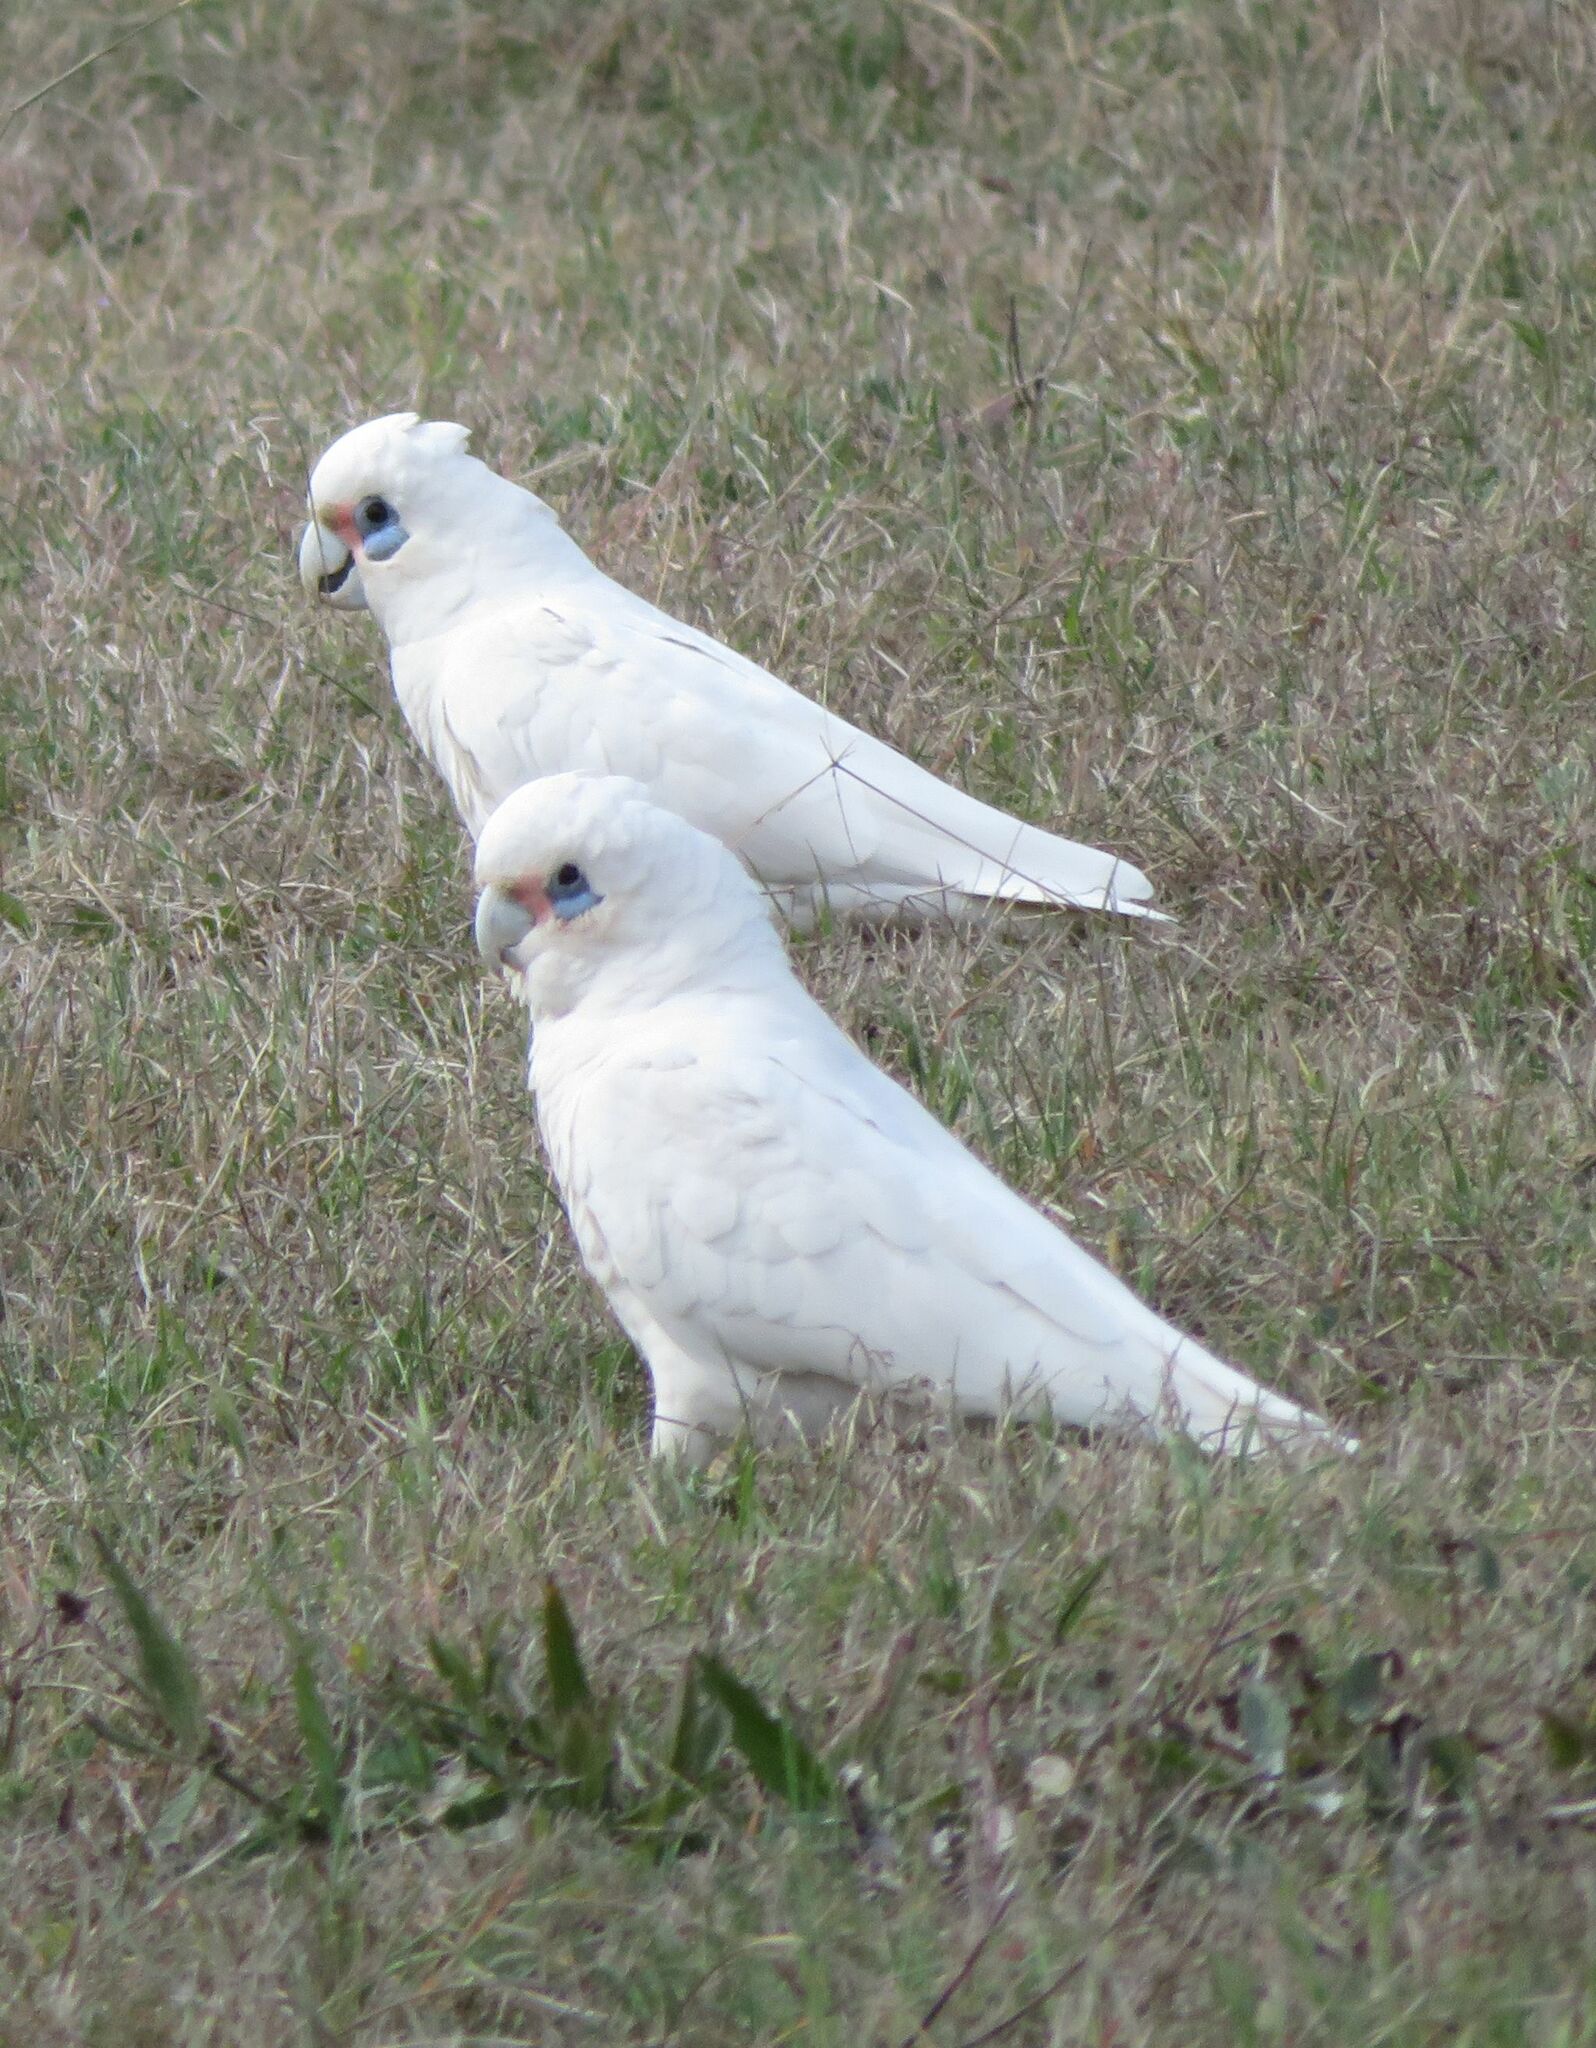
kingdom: Animalia
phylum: Chordata
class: Aves
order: Psittaciformes
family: Psittacidae
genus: Cacatua
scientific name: Cacatua sanguinea
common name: Little corella
